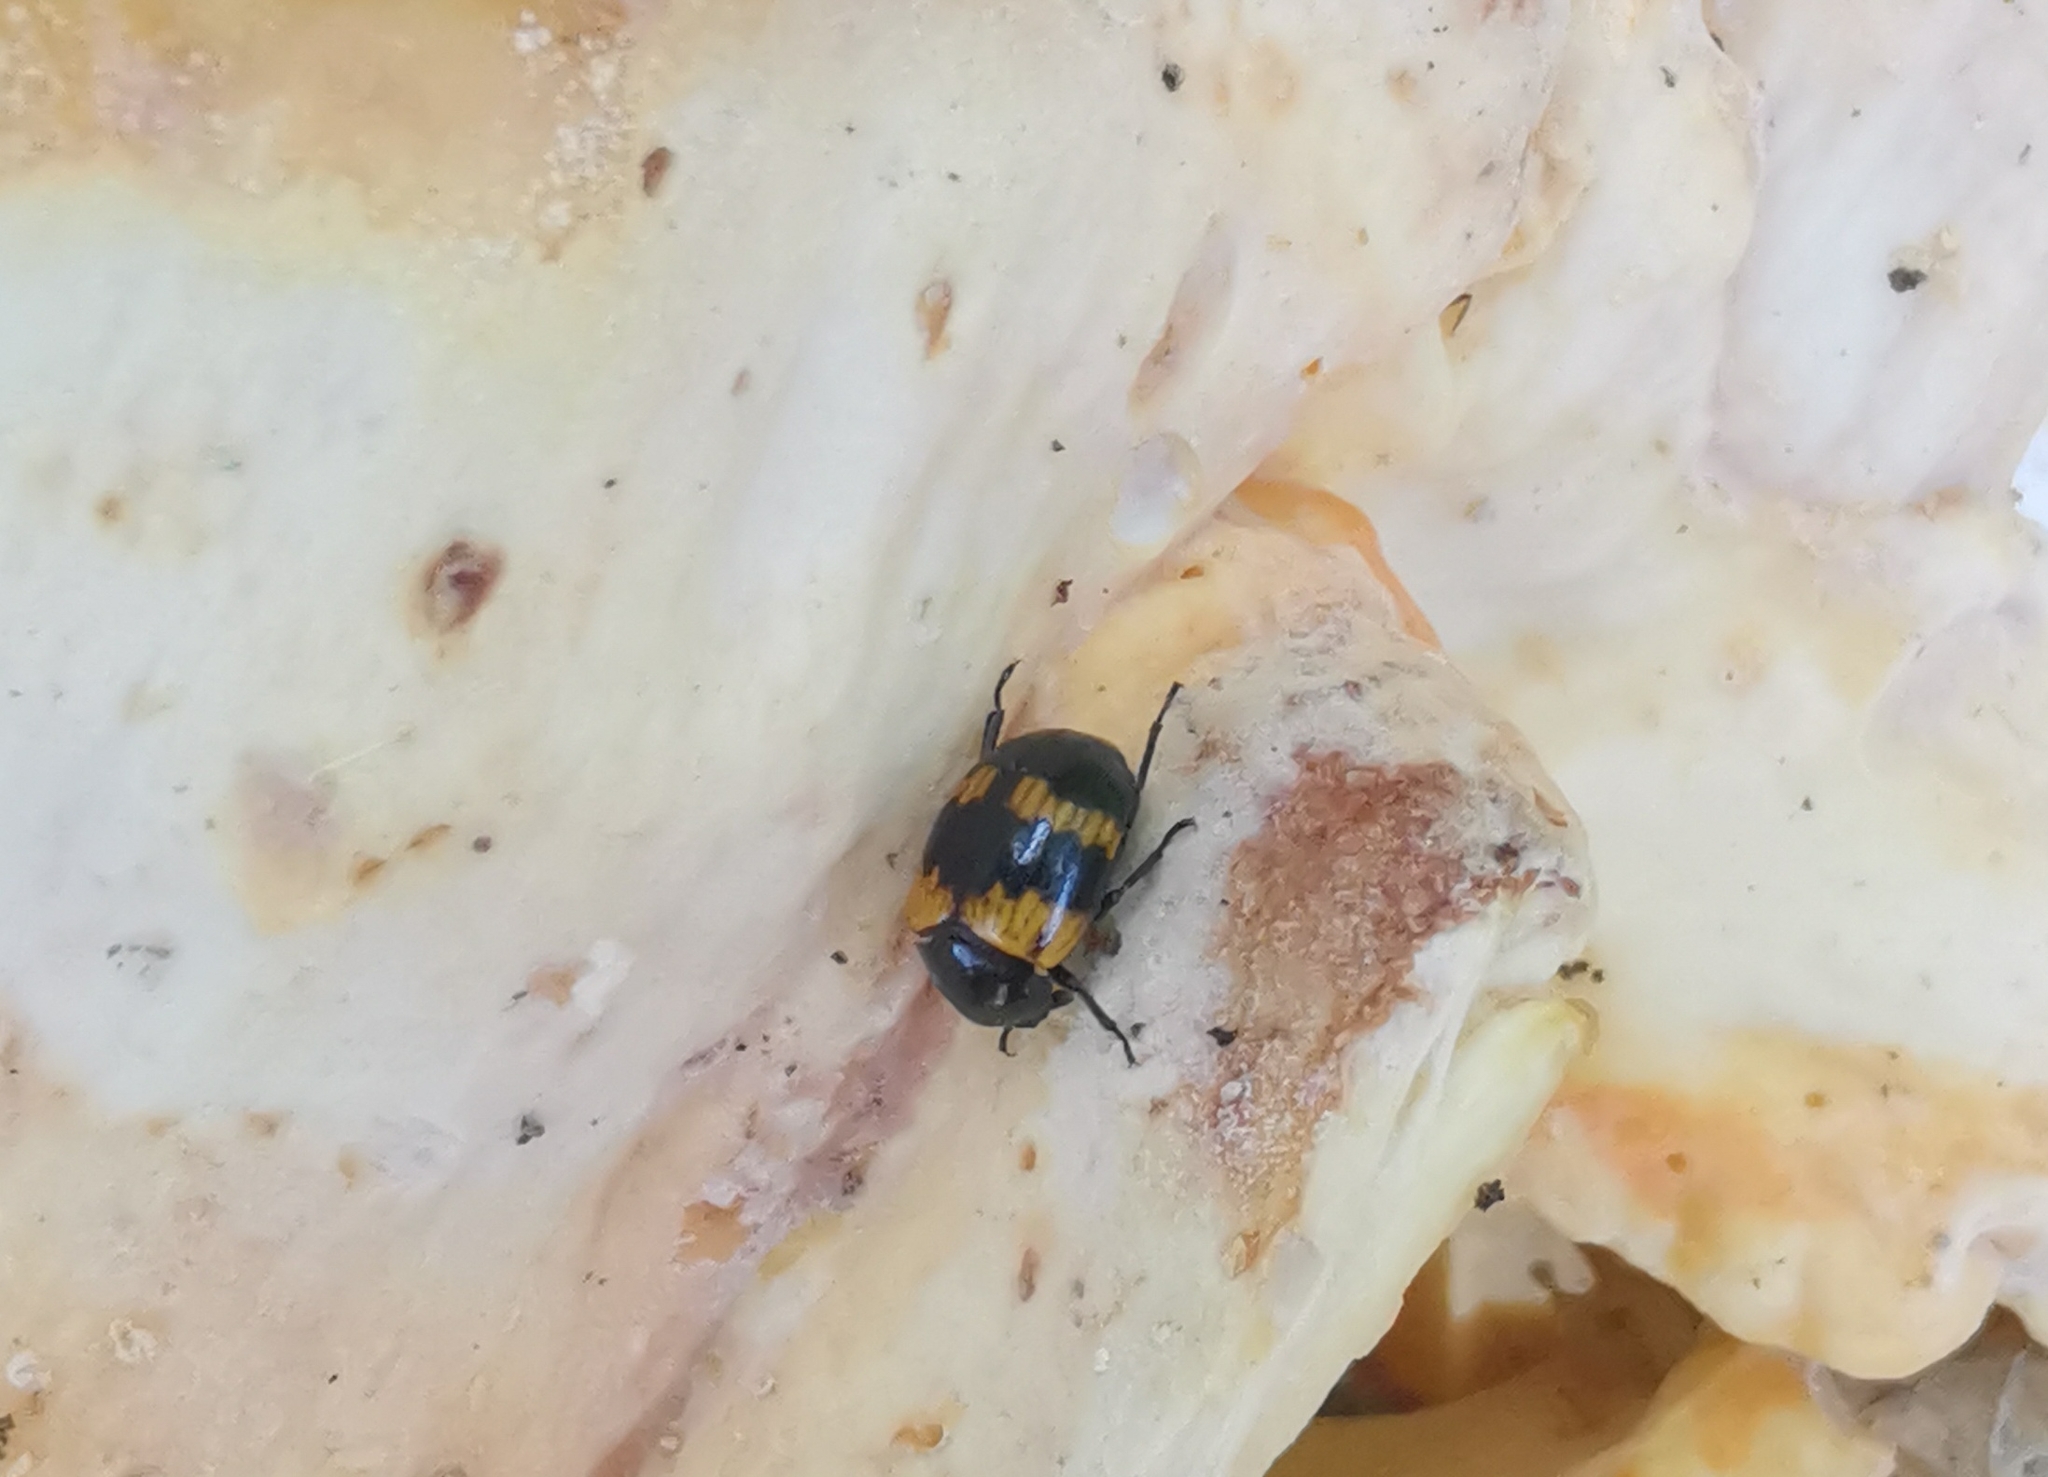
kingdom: Animalia
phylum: Arthropoda
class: Insecta
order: Coleoptera
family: Tenebrionidae
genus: Diaperis
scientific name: Diaperis boleti
